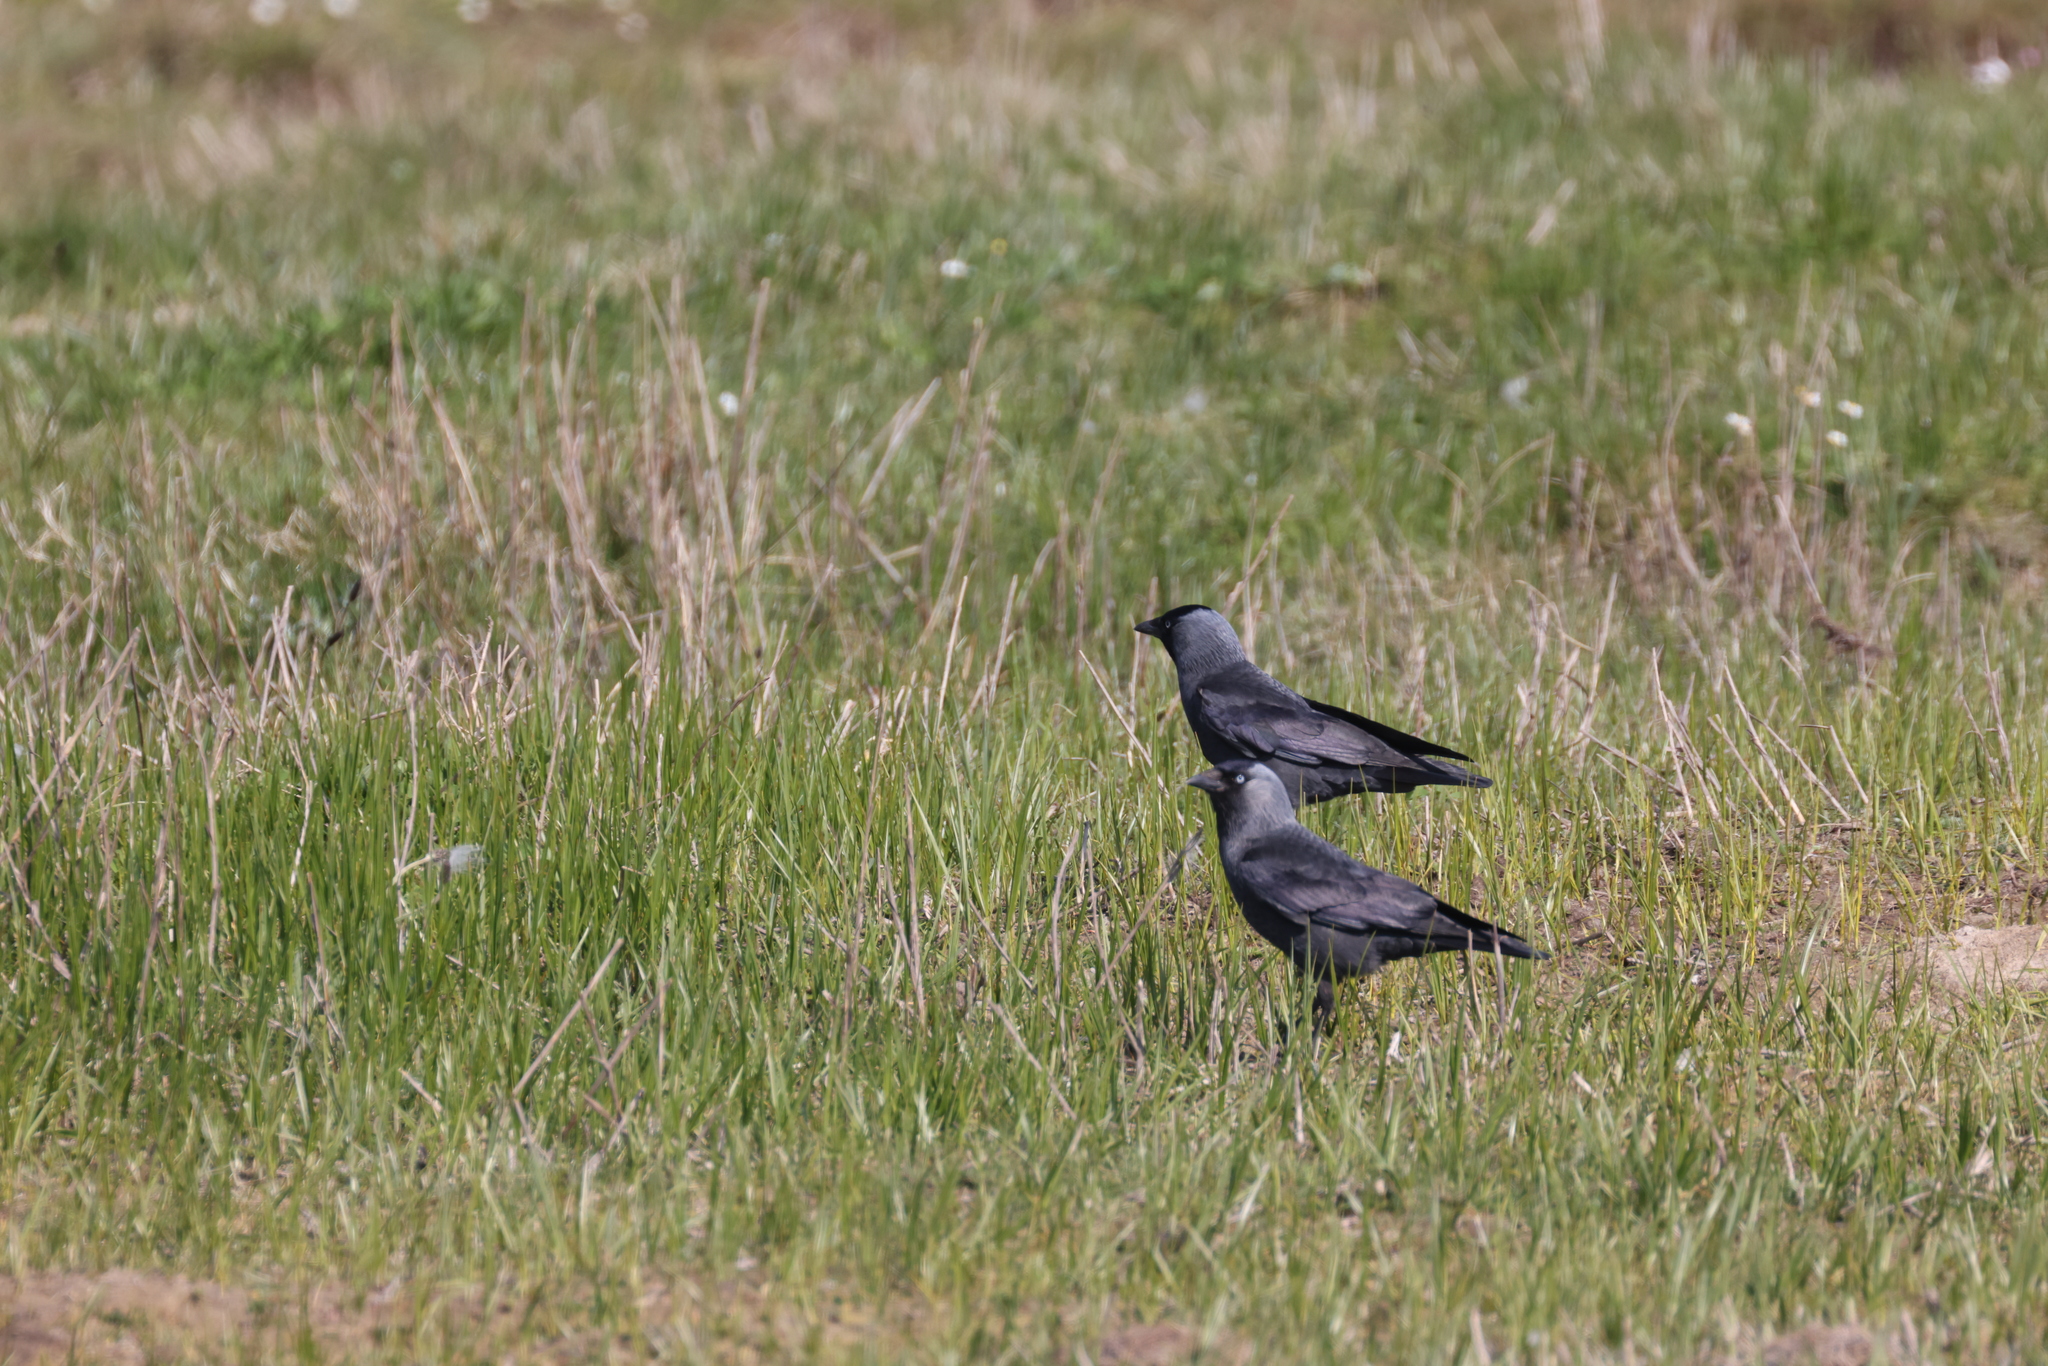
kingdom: Animalia
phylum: Chordata
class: Aves
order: Passeriformes
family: Corvidae
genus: Coloeus
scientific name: Coloeus monedula
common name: Western jackdaw
